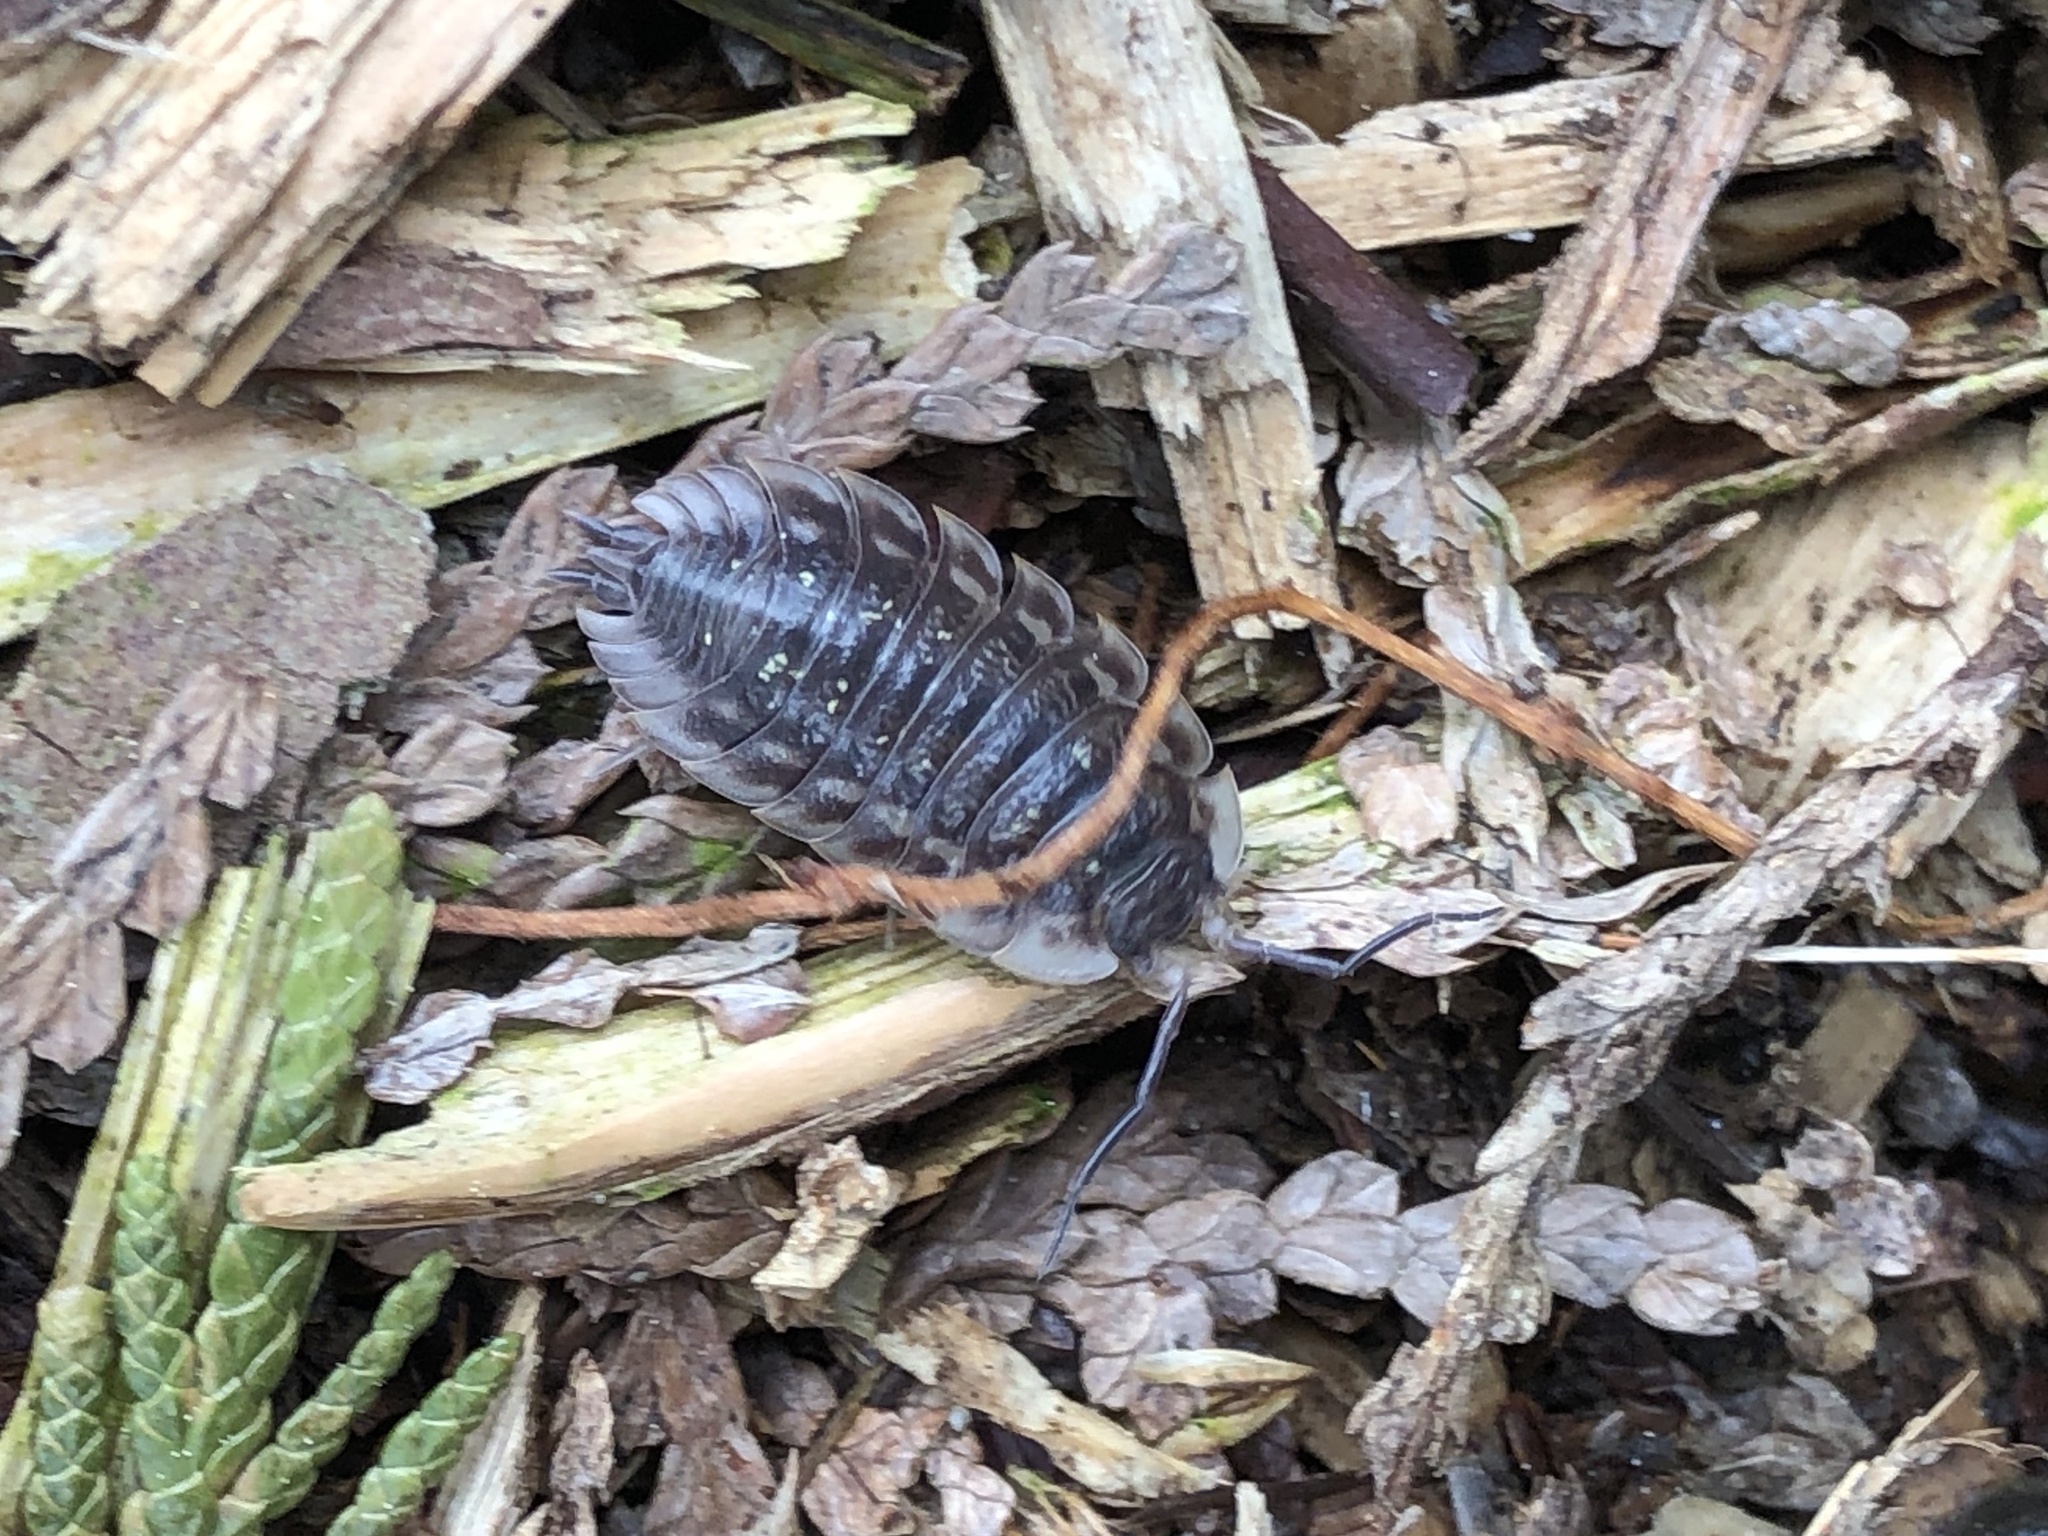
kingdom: Animalia
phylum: Arthropoda
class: Malacostraca
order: Isopoda
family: Oniscidae
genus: Oniscus
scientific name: Oniscus asellus
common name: Common shiny woodlouse
